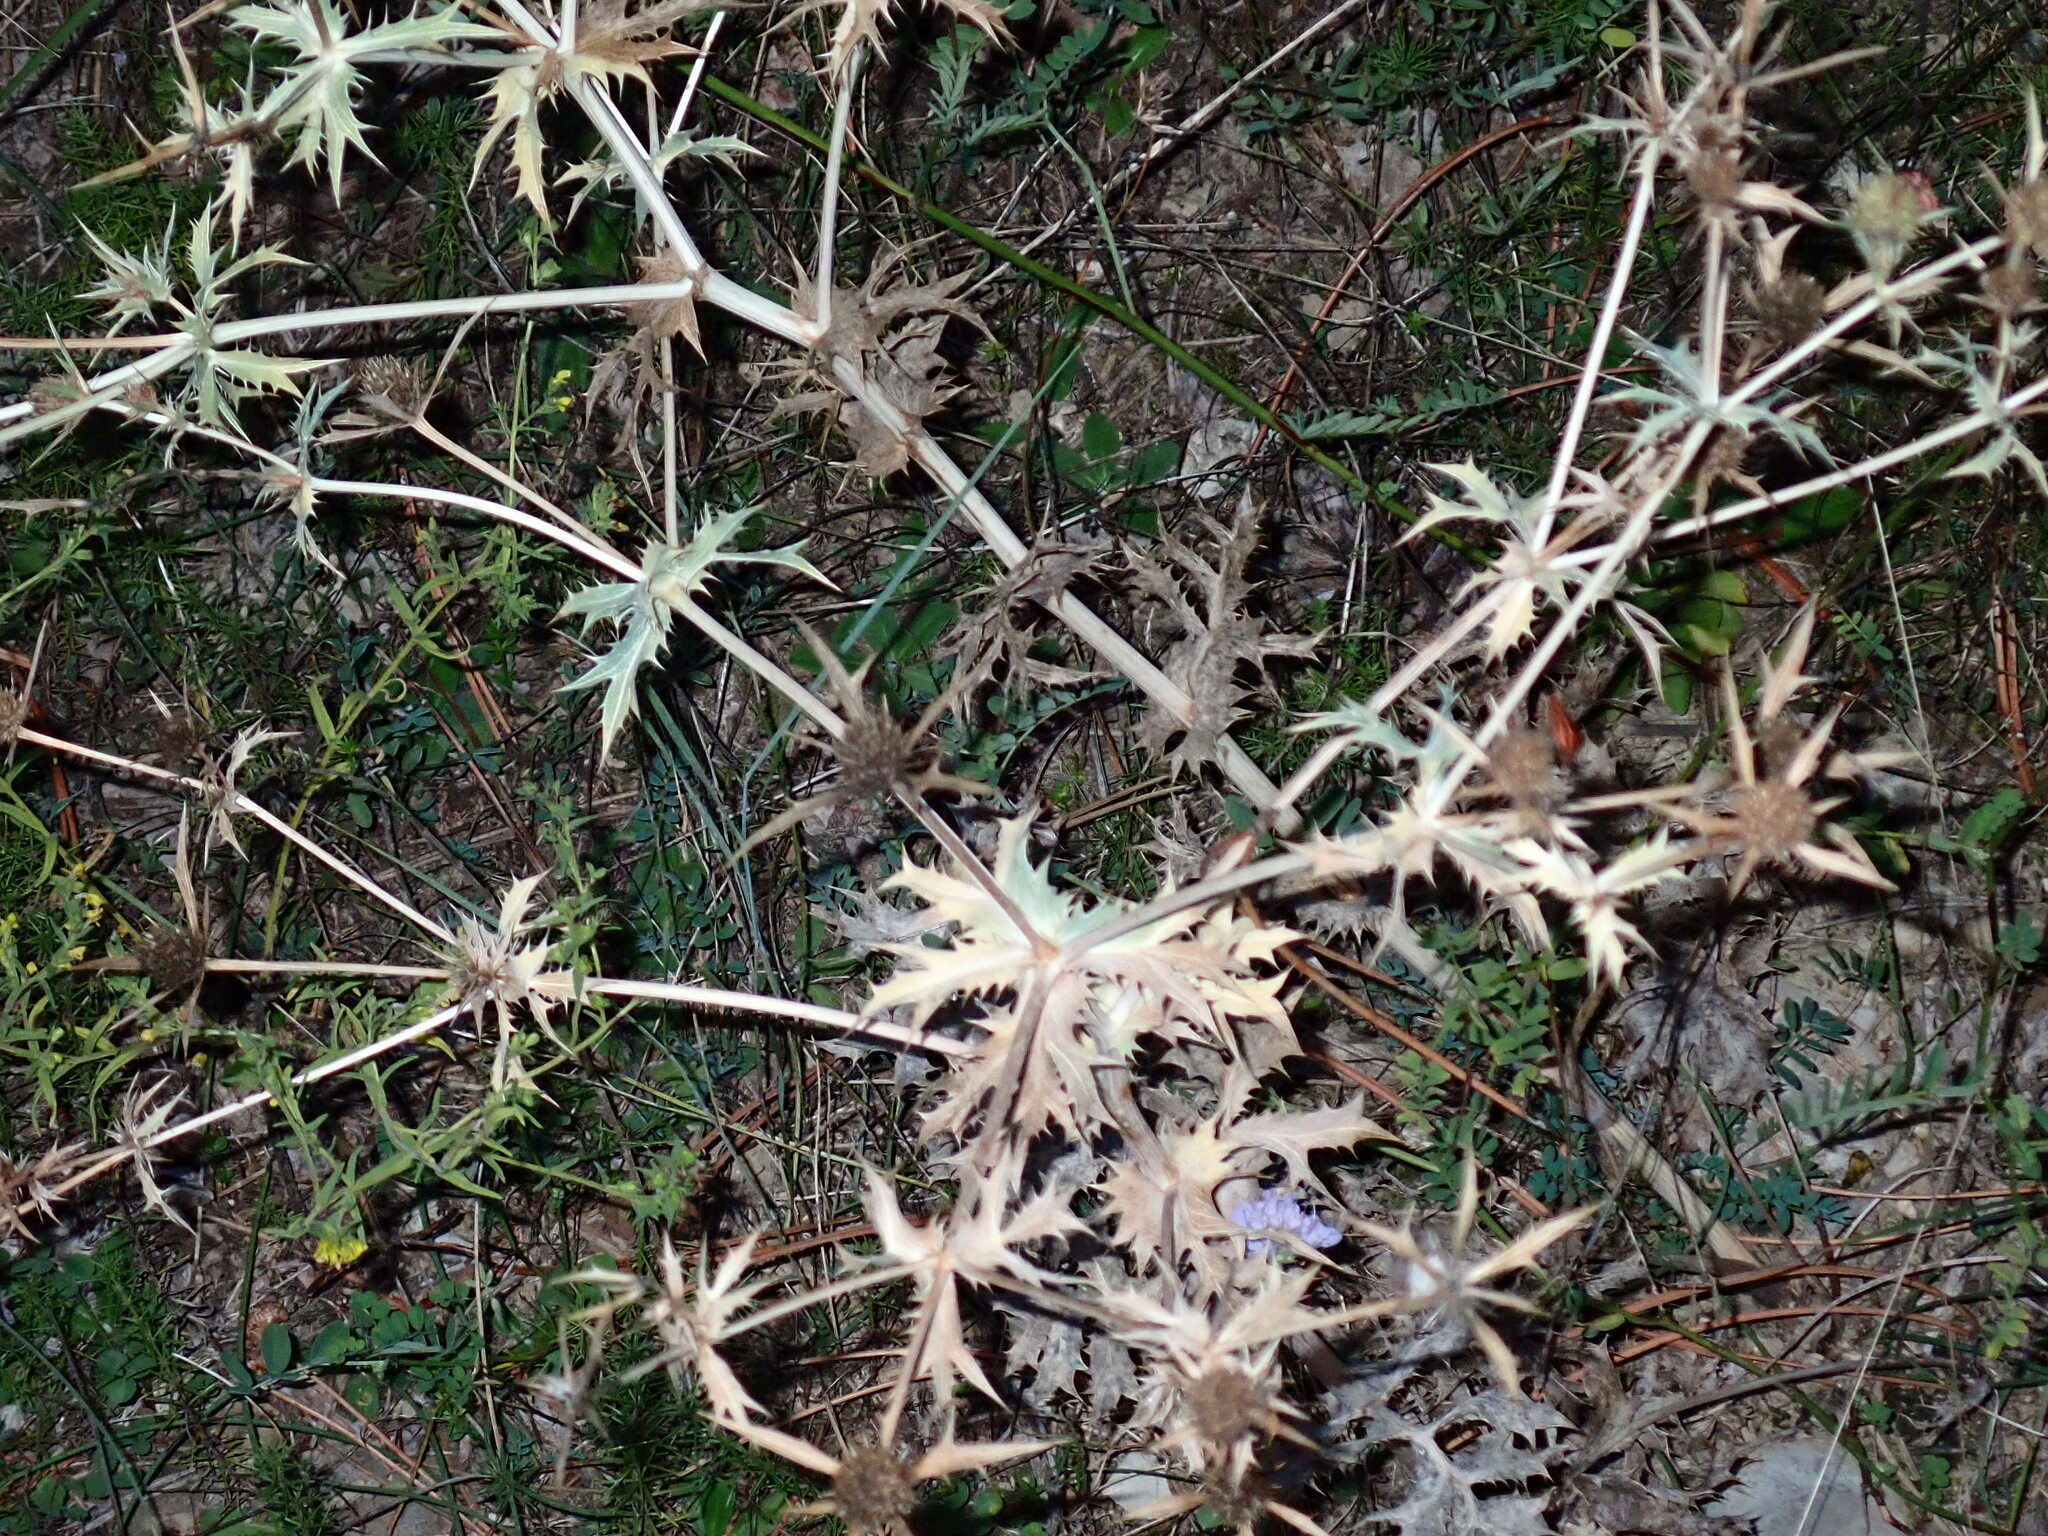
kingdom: Plantae
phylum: Tracheophyta
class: Magnoliopsida
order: Apiales
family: Apiaceae
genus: Eryngium
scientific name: Eryngium campestre
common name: Field eryngo
